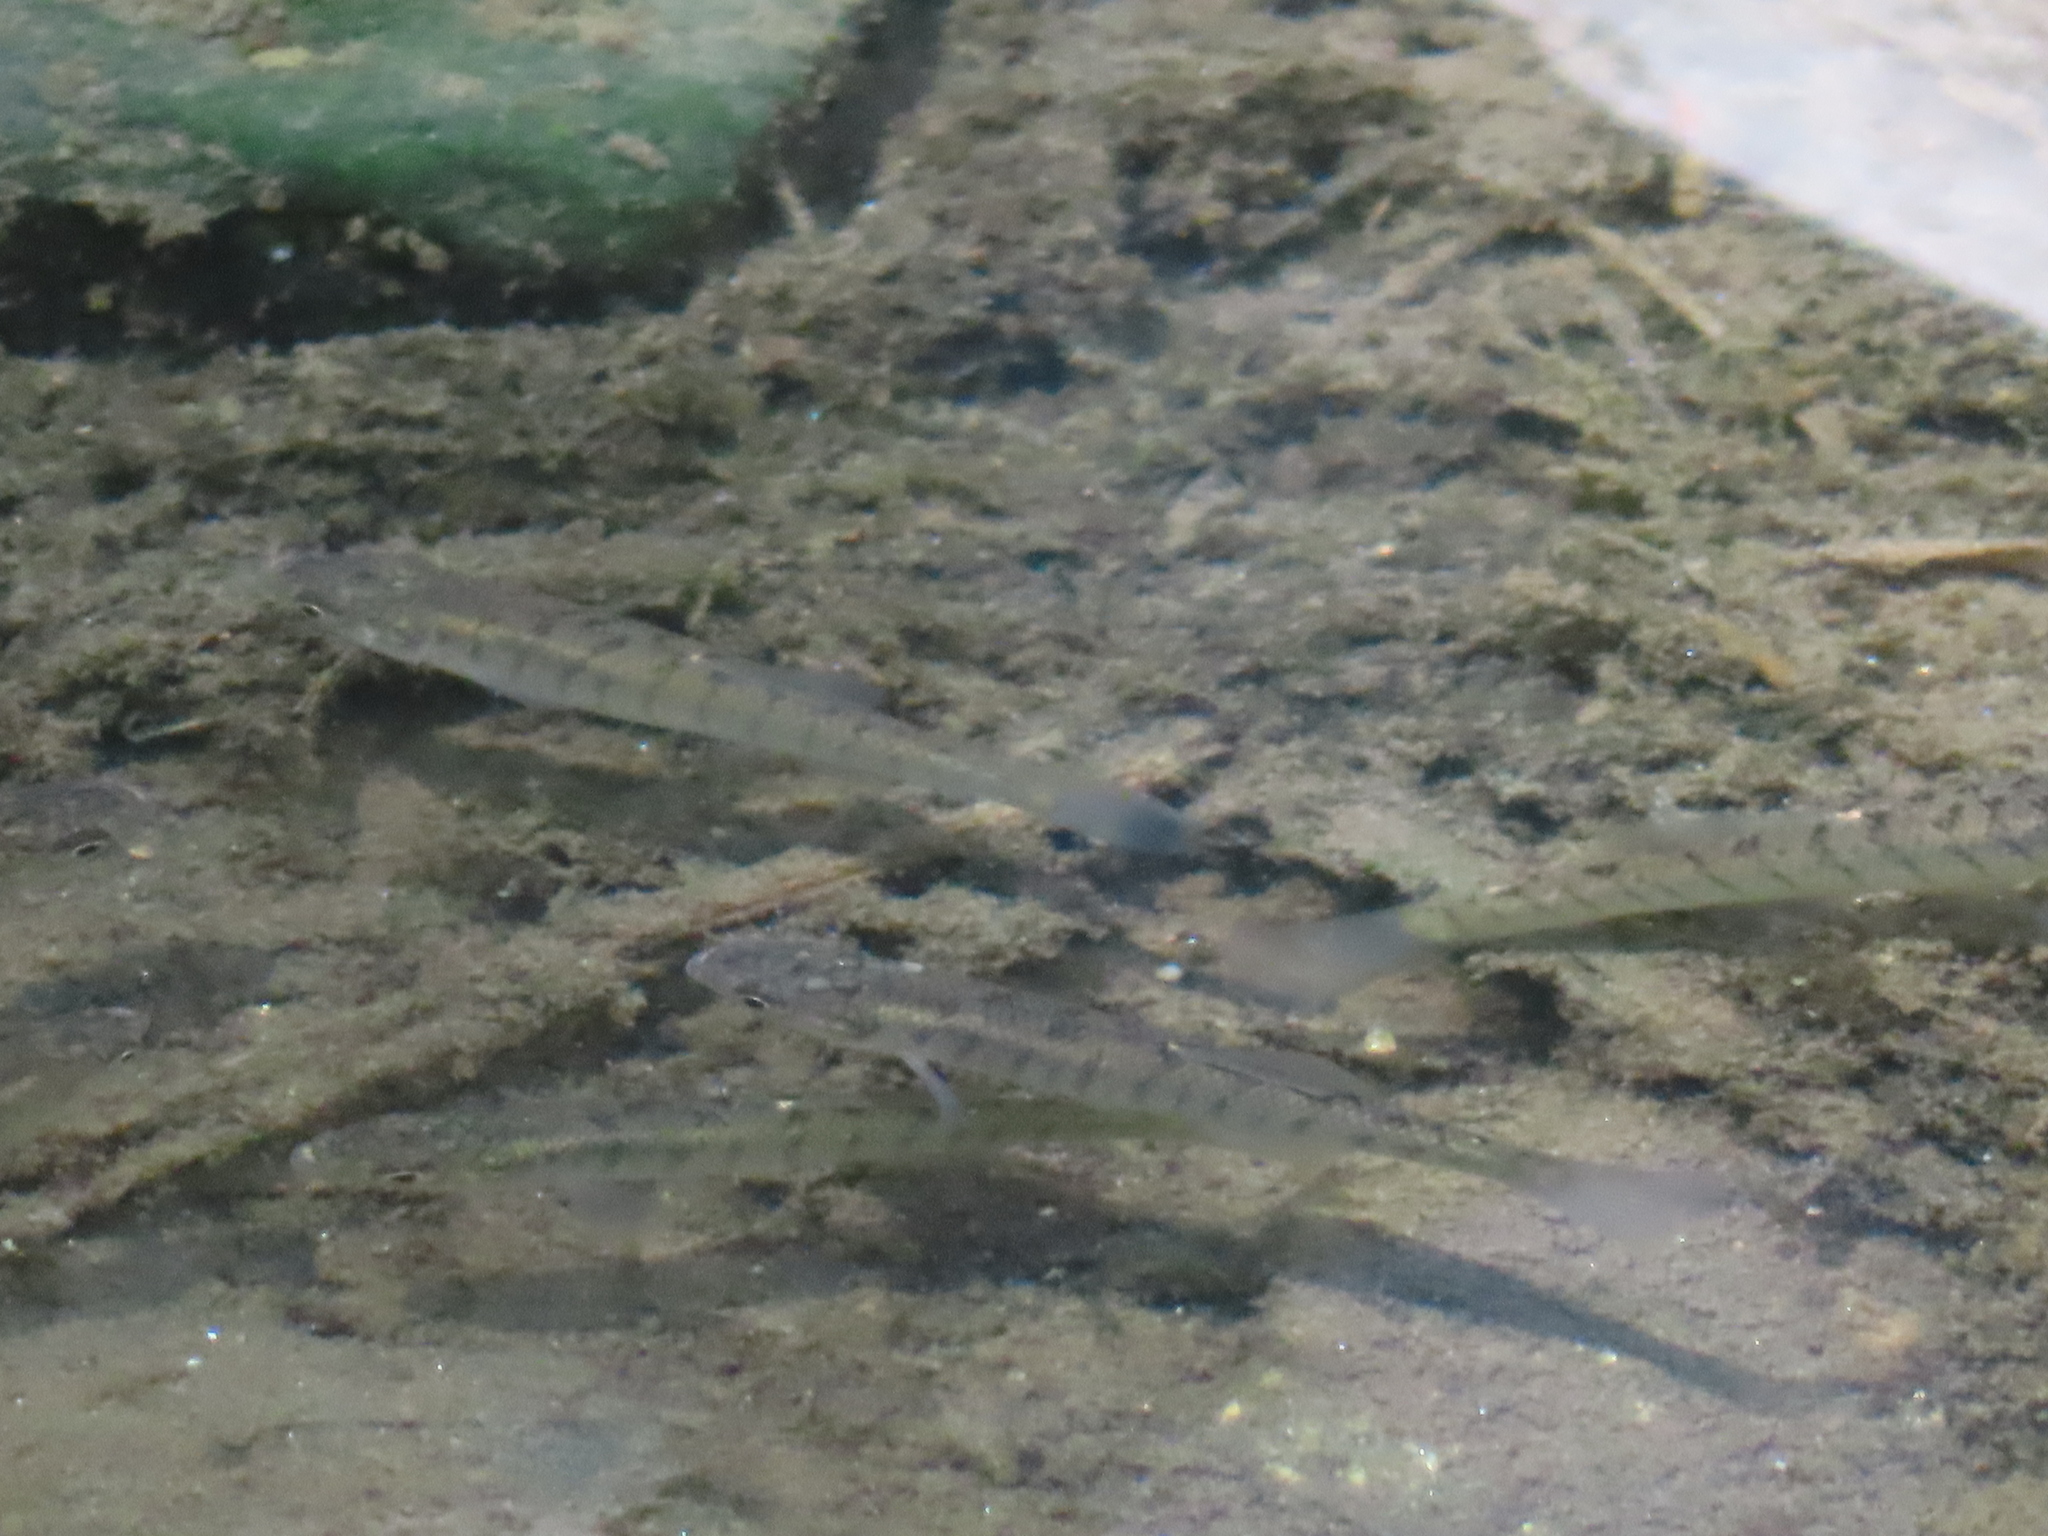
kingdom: Animalia
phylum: Chordata
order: Cyprinodontiformes
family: Fundulidae
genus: Fundulus
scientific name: Fundulus diaphanus
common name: Banded killifish
